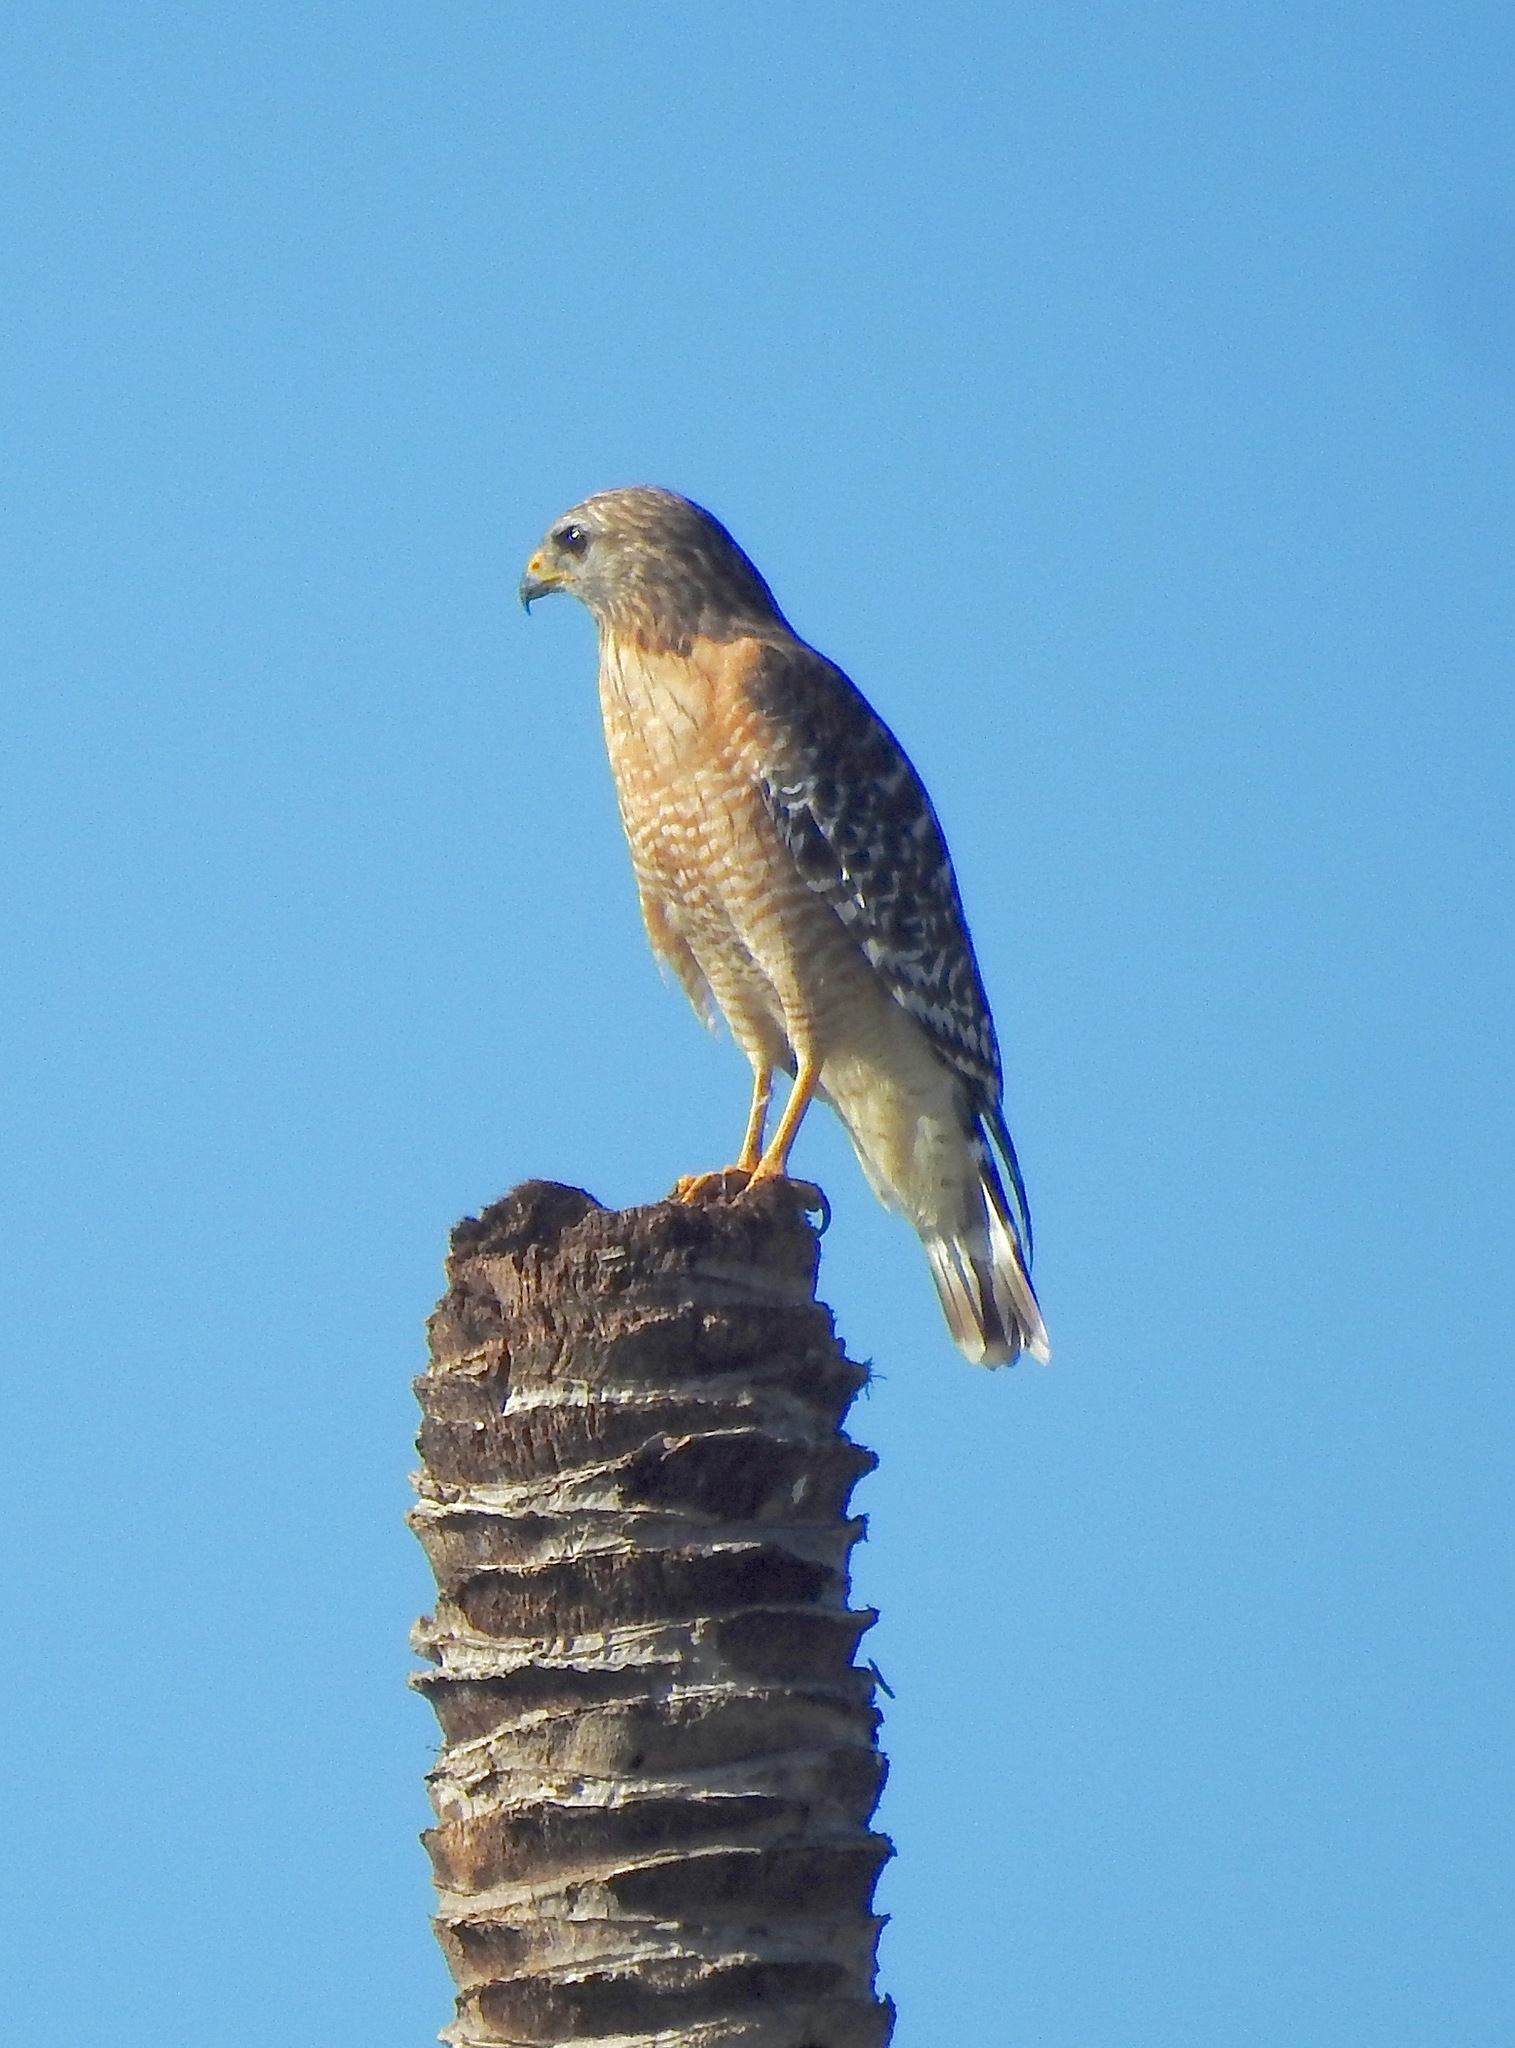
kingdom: Animalia
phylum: Chordata
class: Aves
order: Accipitriformes
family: Accipitridae
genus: Buteo
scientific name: Buteo lineatus
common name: Red-shouldered hawk
